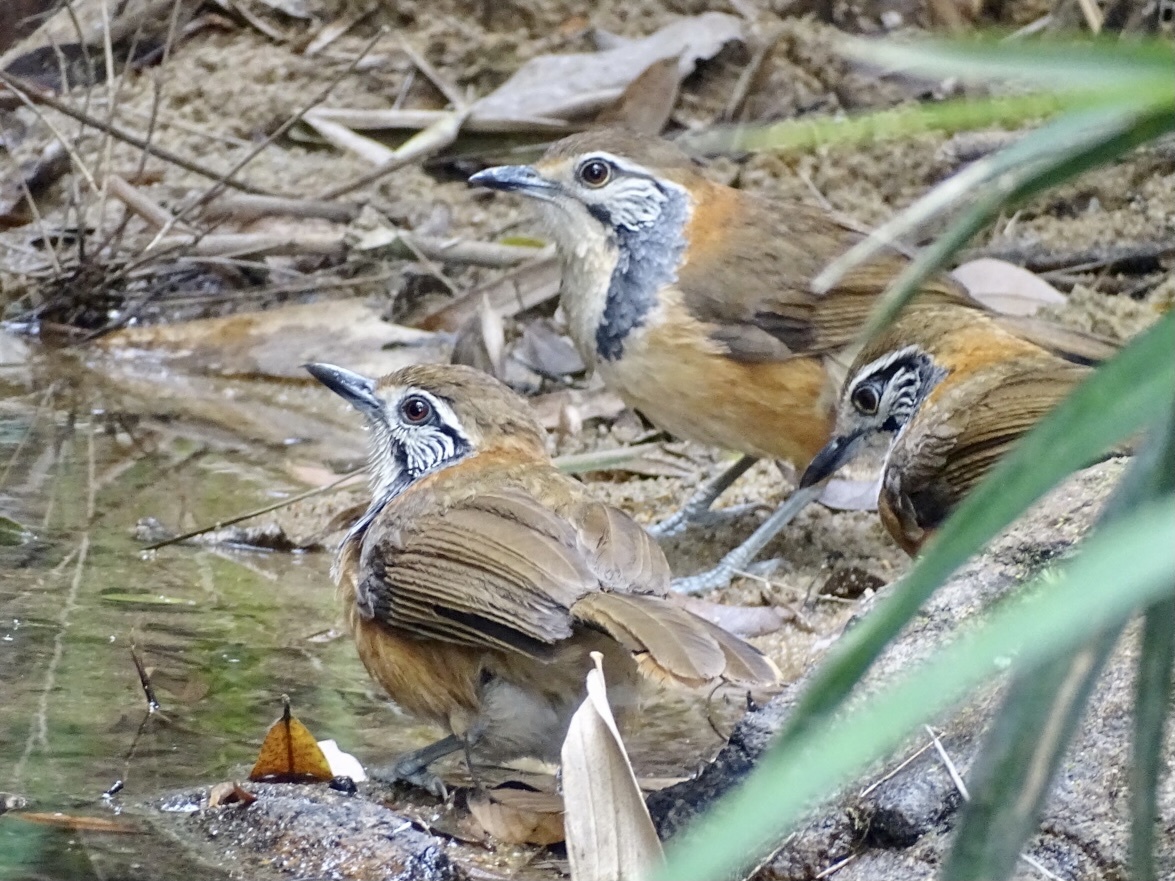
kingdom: Animalia
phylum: Chordata
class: Aves
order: Passeriformes
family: Leiothrichidae
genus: Garrulax
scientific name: Garrulax pectoralis
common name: Greater necklaced laughingthrush
